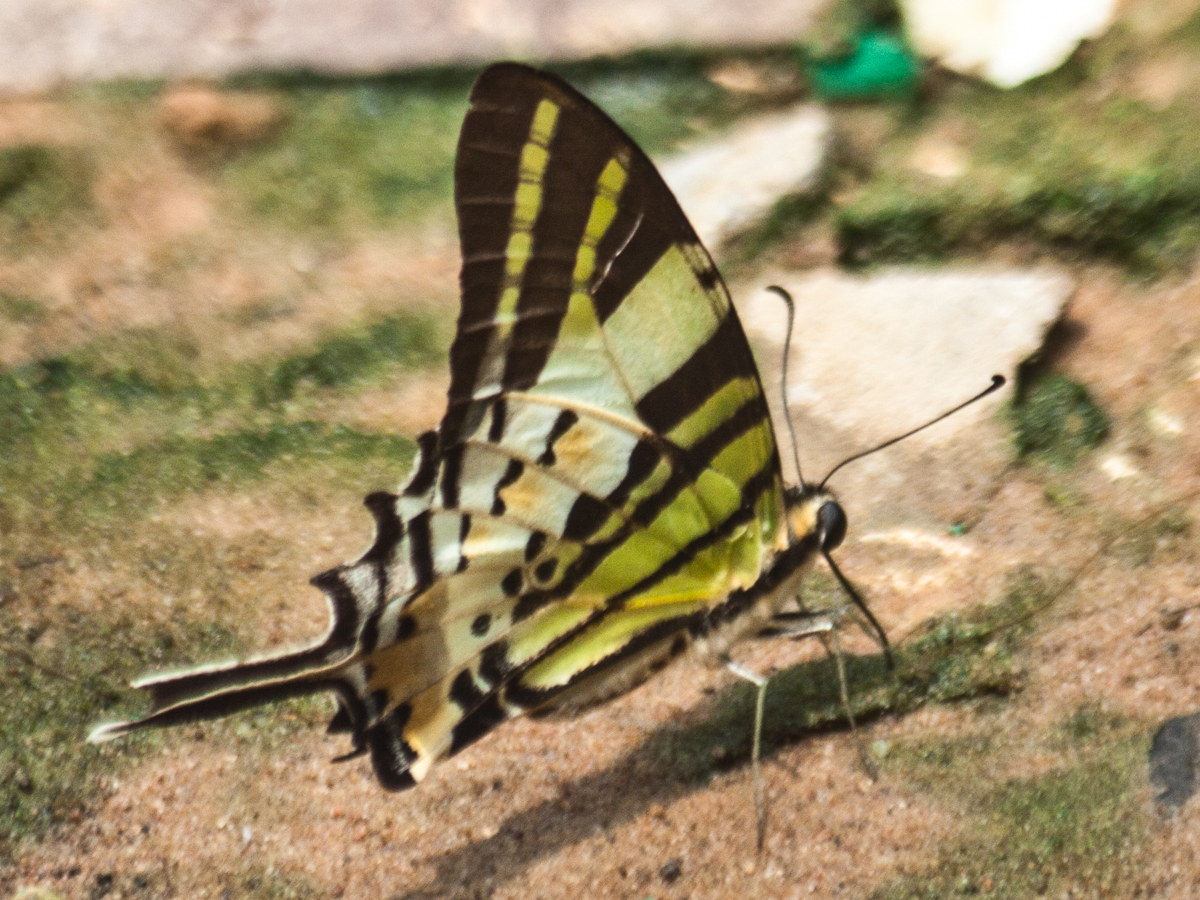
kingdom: Animalia
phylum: Arthropoda
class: Insecta
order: Lepidoptera
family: Papilionidae
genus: Graphium
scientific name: Graphium antiphates
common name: Fivebar swordtail
